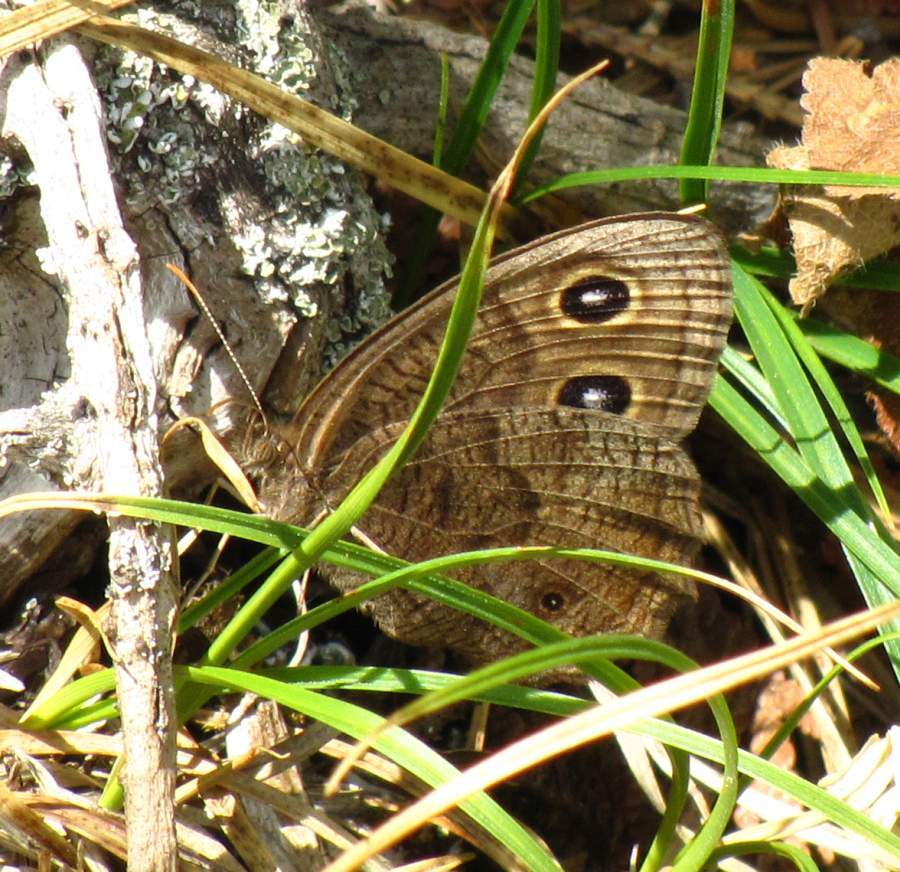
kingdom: Animalia
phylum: Arthropoda
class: Insecta
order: Lepidoptera
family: Nymphalidae
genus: Cercyonis
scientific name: Cercyonis pegala
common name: Common wood-nymph
